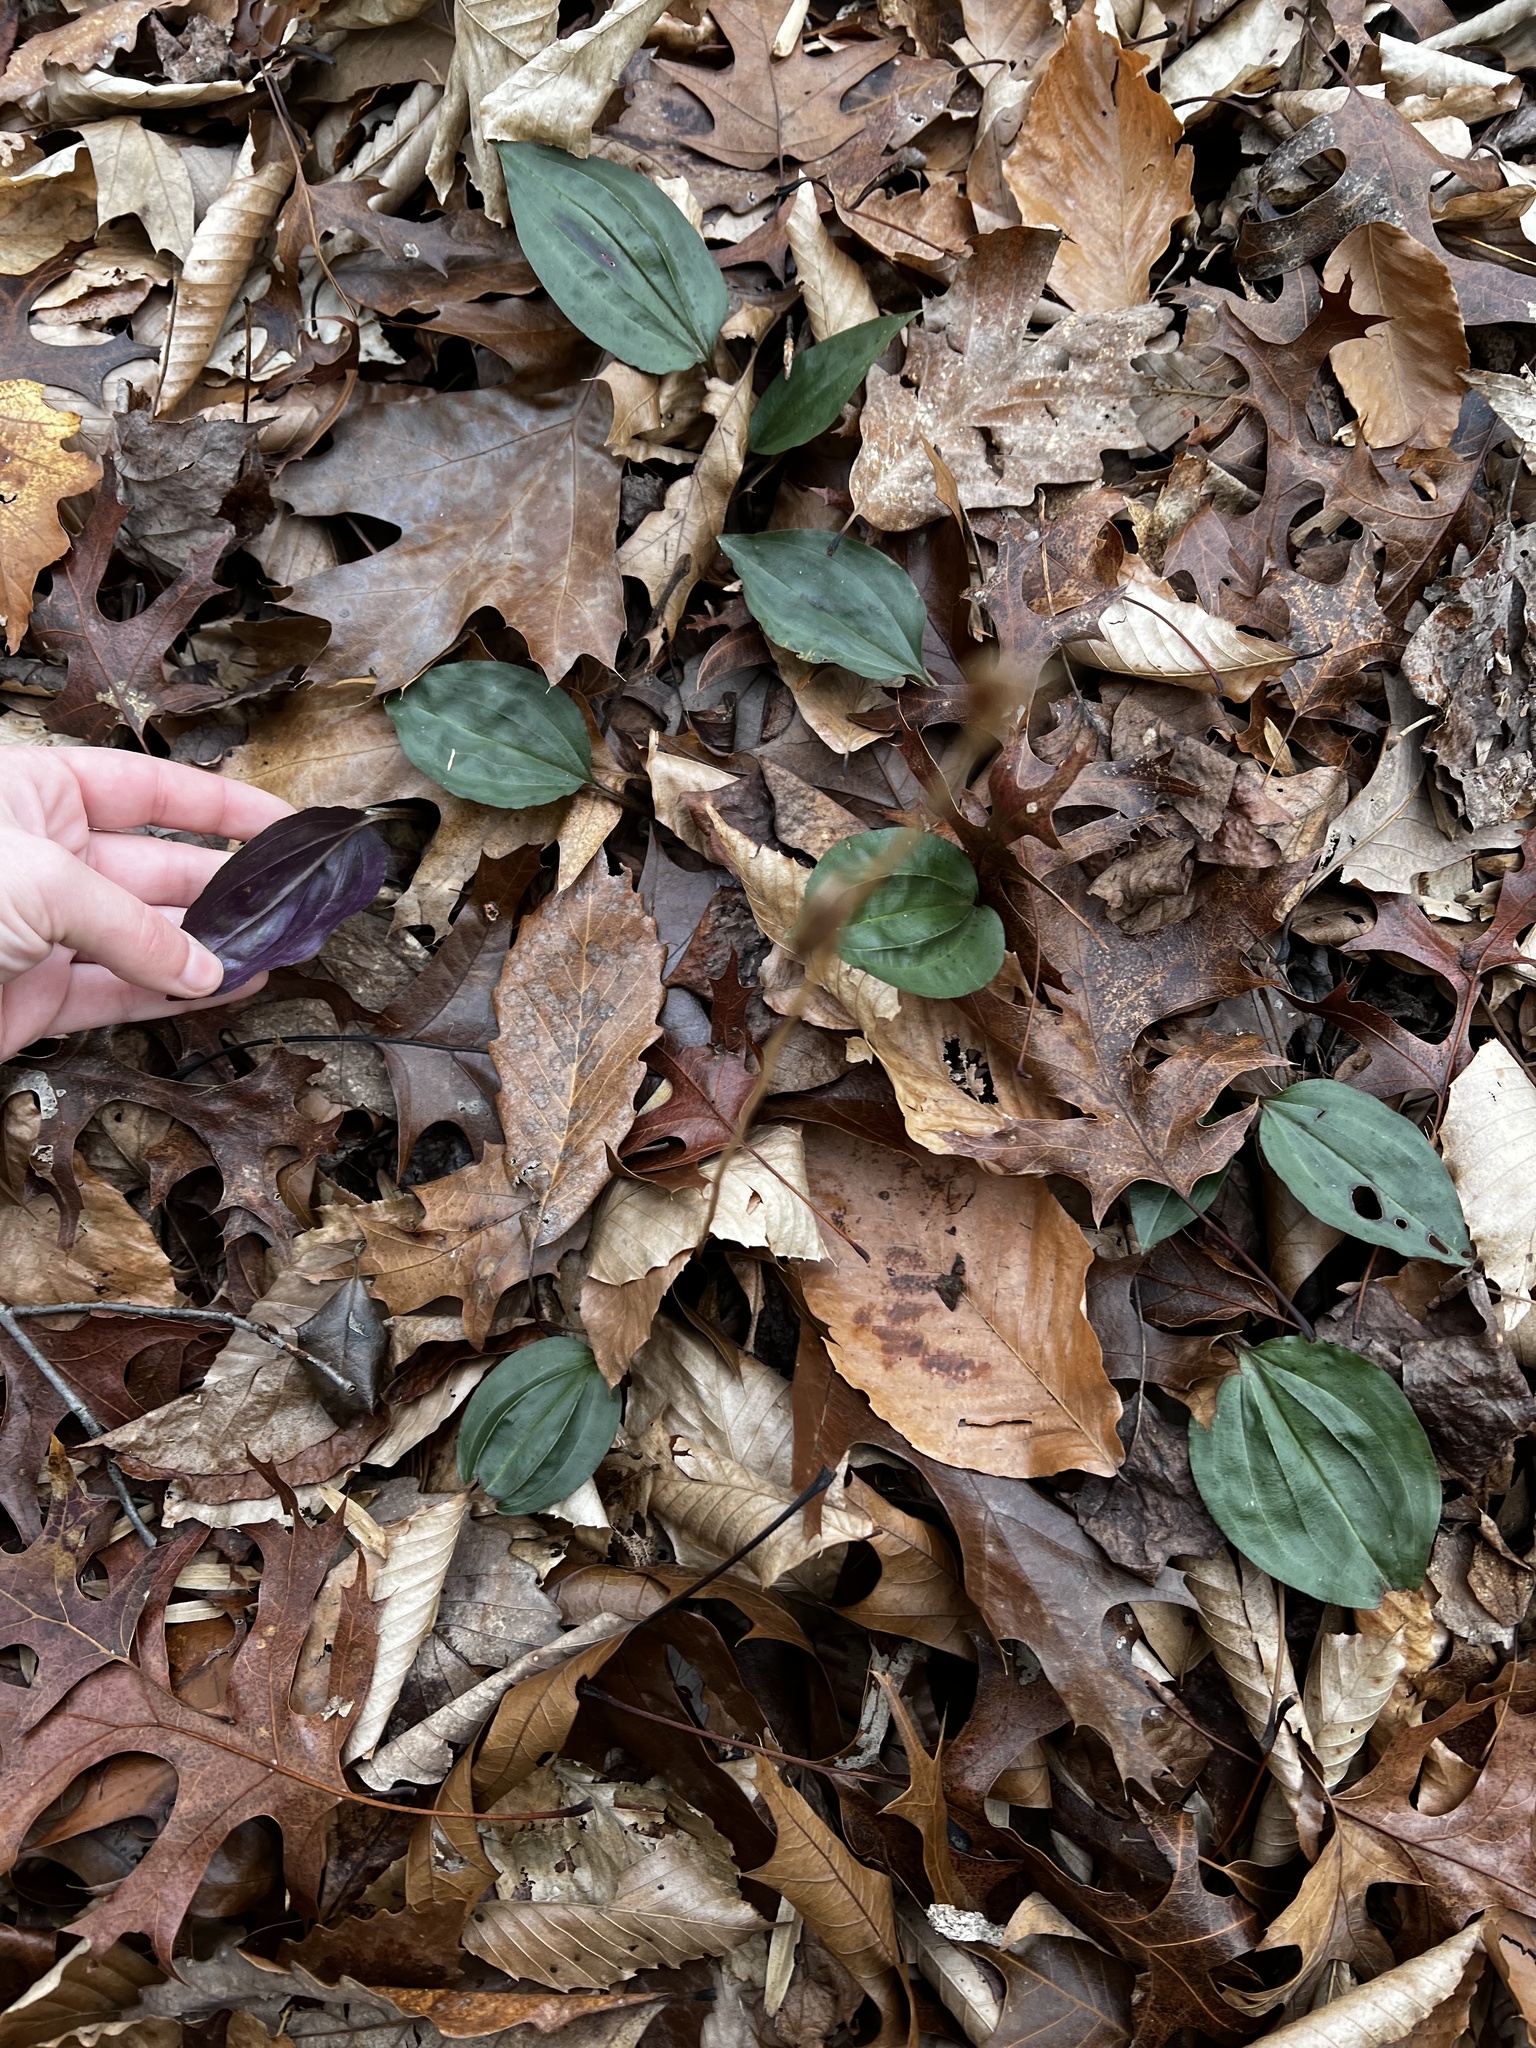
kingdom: Plantae
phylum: Tracheophyta
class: Liliopsida
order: Asparagales
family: Orchidaceae
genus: Tipularia
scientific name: Tipularia discolor
